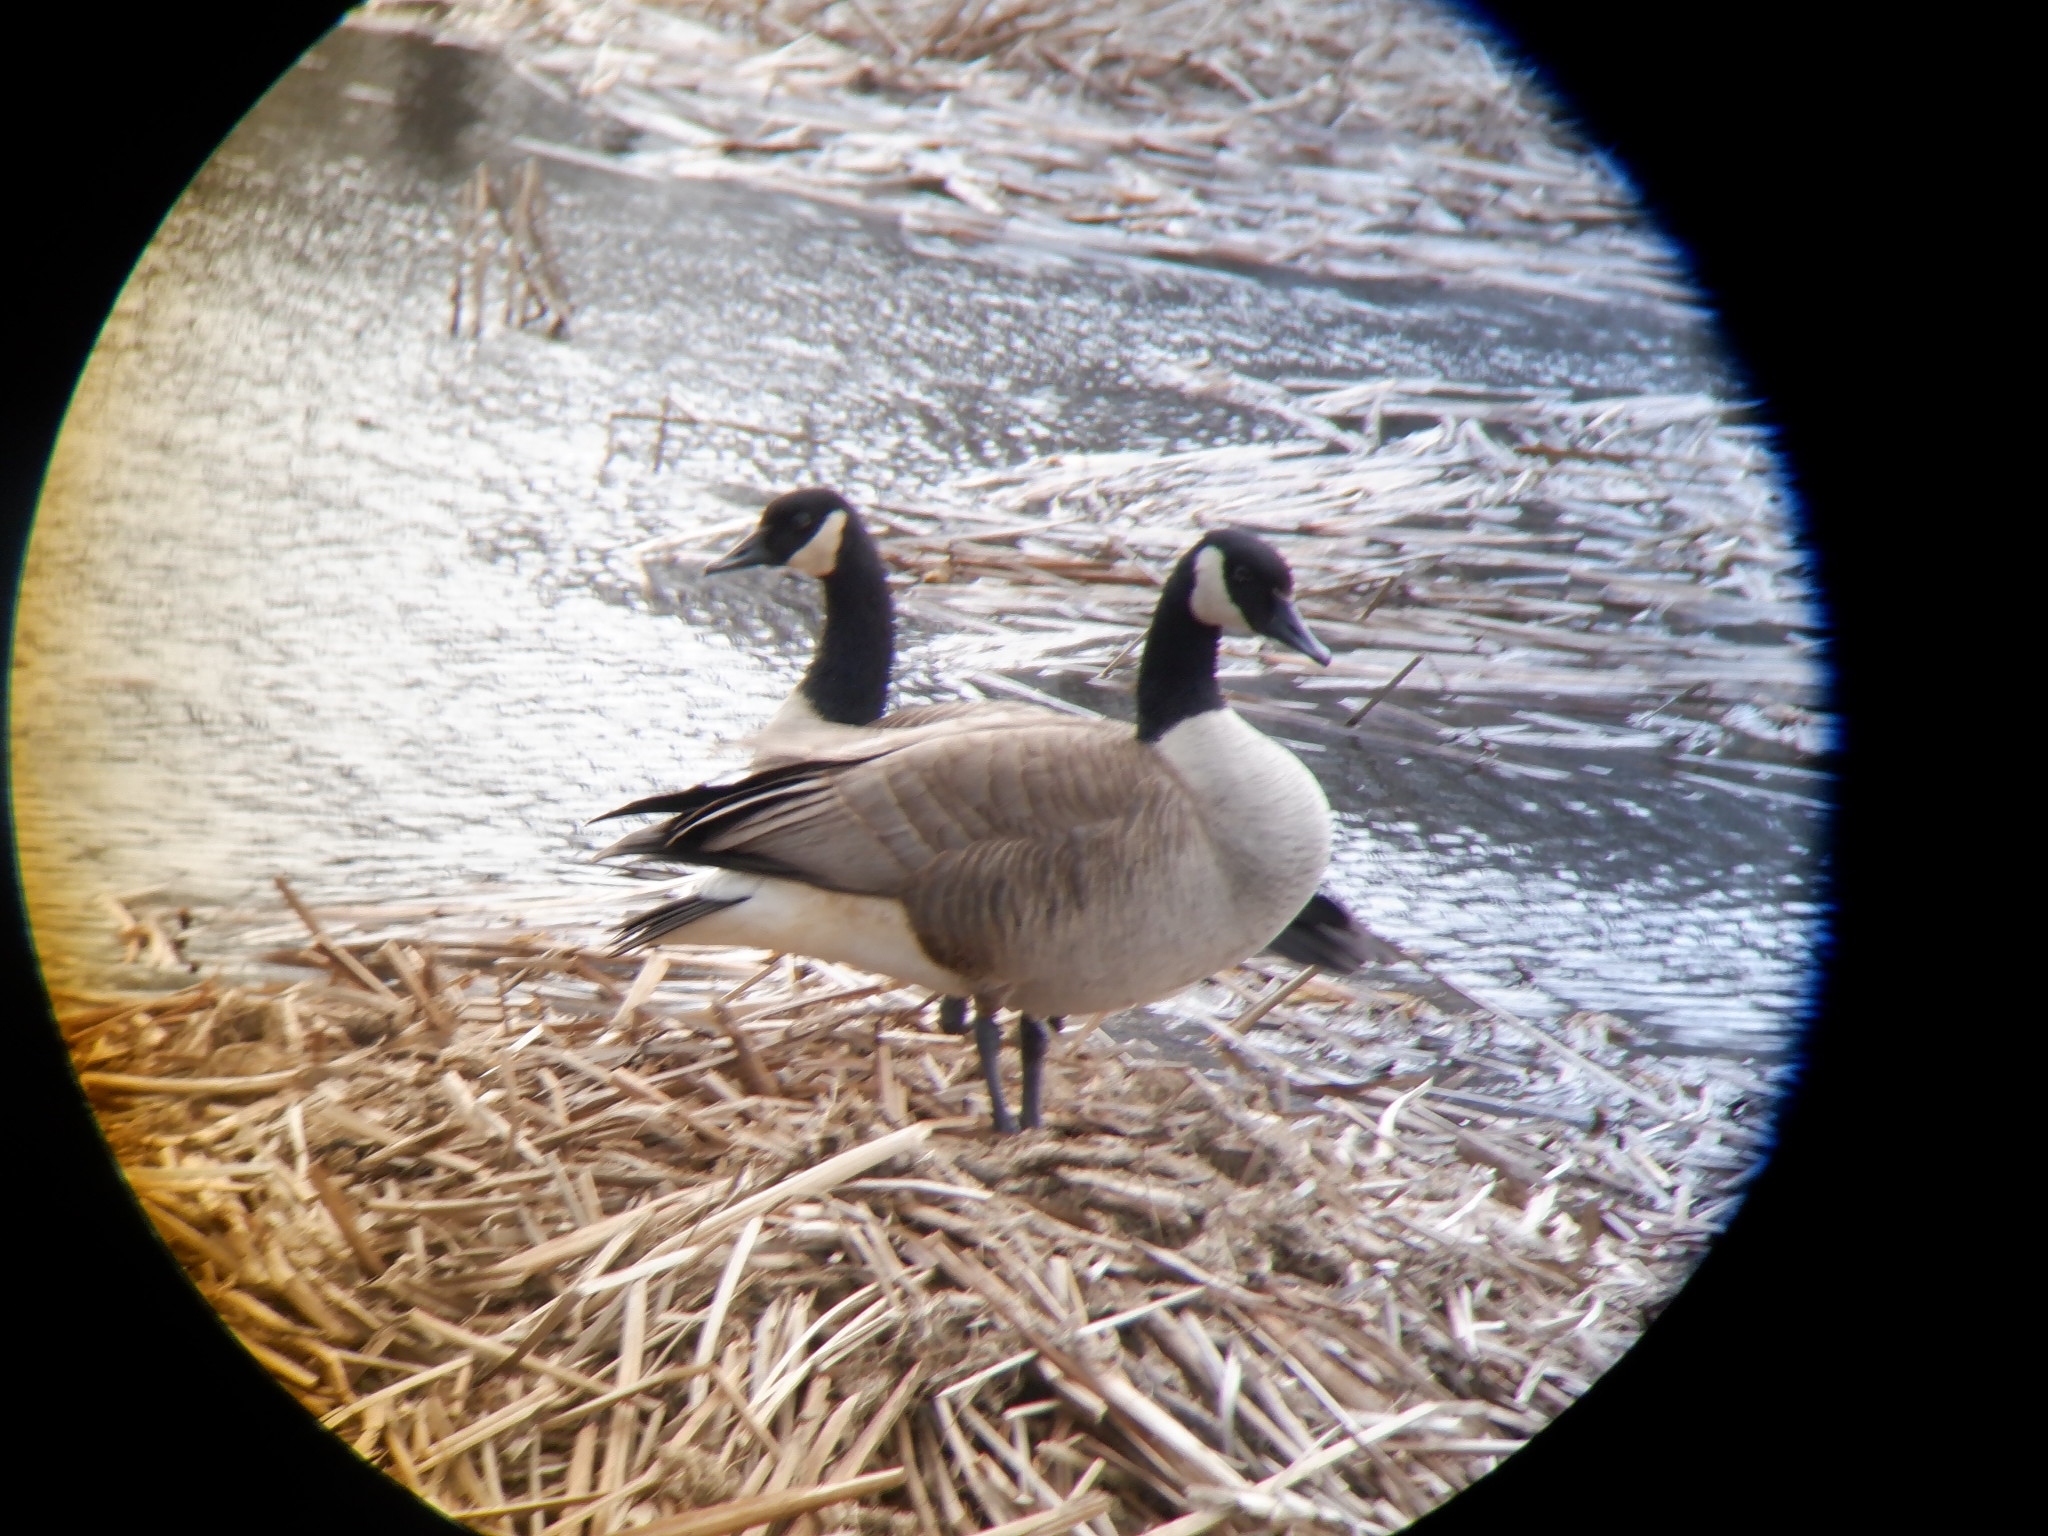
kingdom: Animalia
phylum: Chordata
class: Aves
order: Anseriformes
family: Anatidae
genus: Branta
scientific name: Branta canadensis
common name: Canada goose
